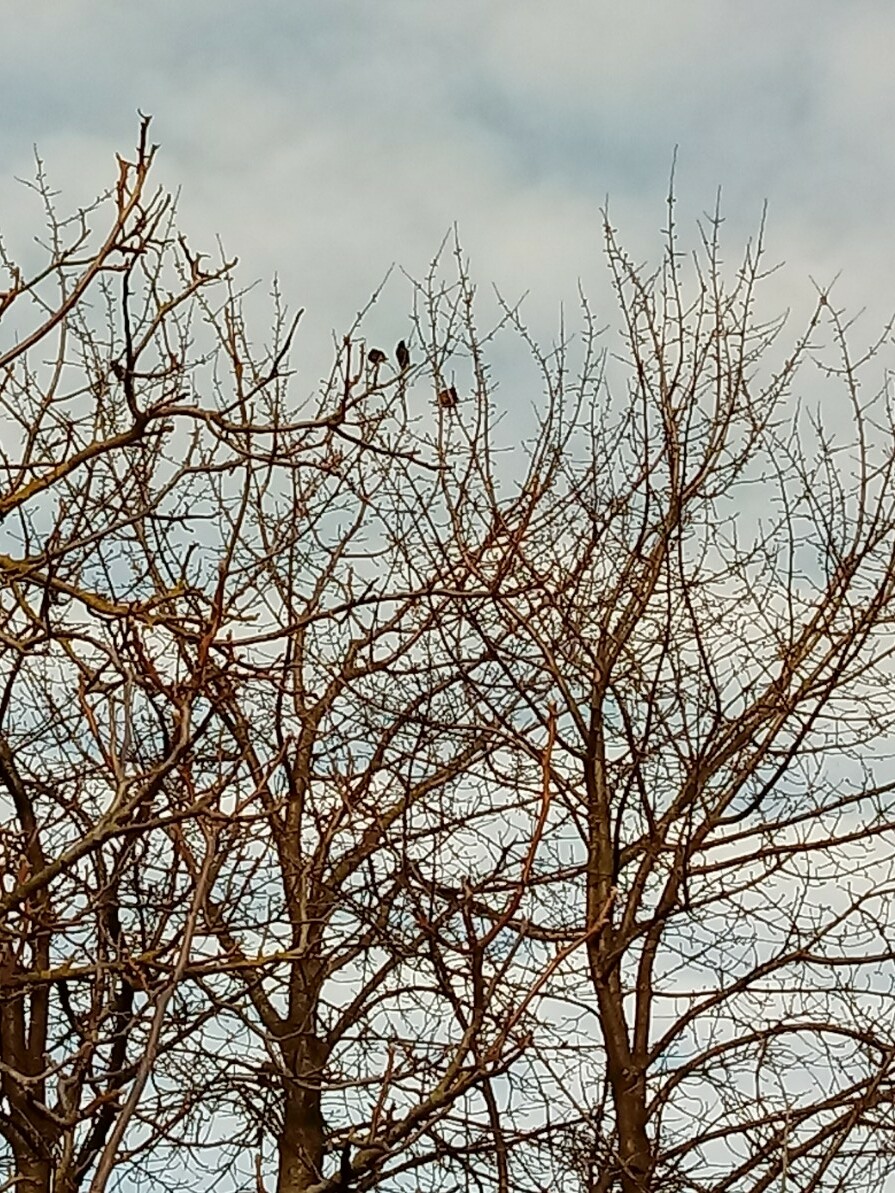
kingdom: Animalia
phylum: Chordata
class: Aves
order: Passeriformes
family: Sturnidae
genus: Sturnus
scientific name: Sturnus vulgaris
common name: Common starling
